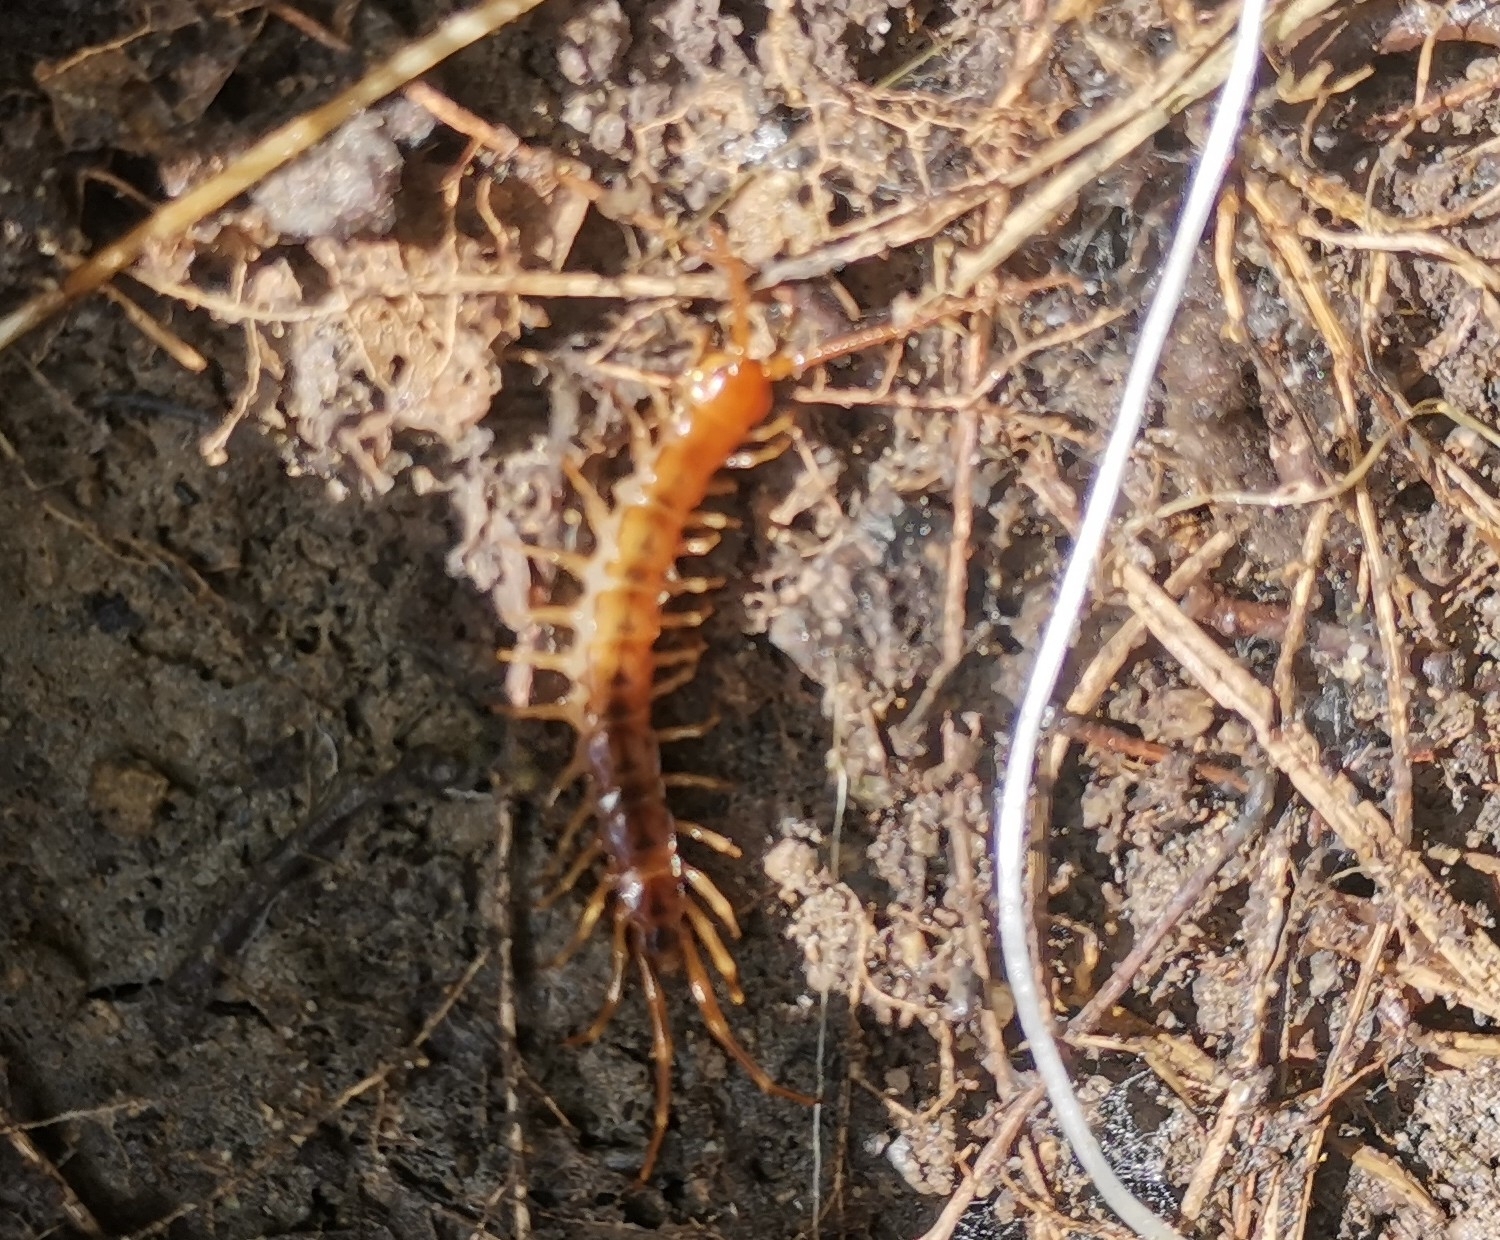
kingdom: Animalia
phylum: Arthropoda
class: Chilopoda
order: Lithobiomorpha
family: Lithobiidae
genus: Lithobius
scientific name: Lithobius forficatus
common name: Centipede
